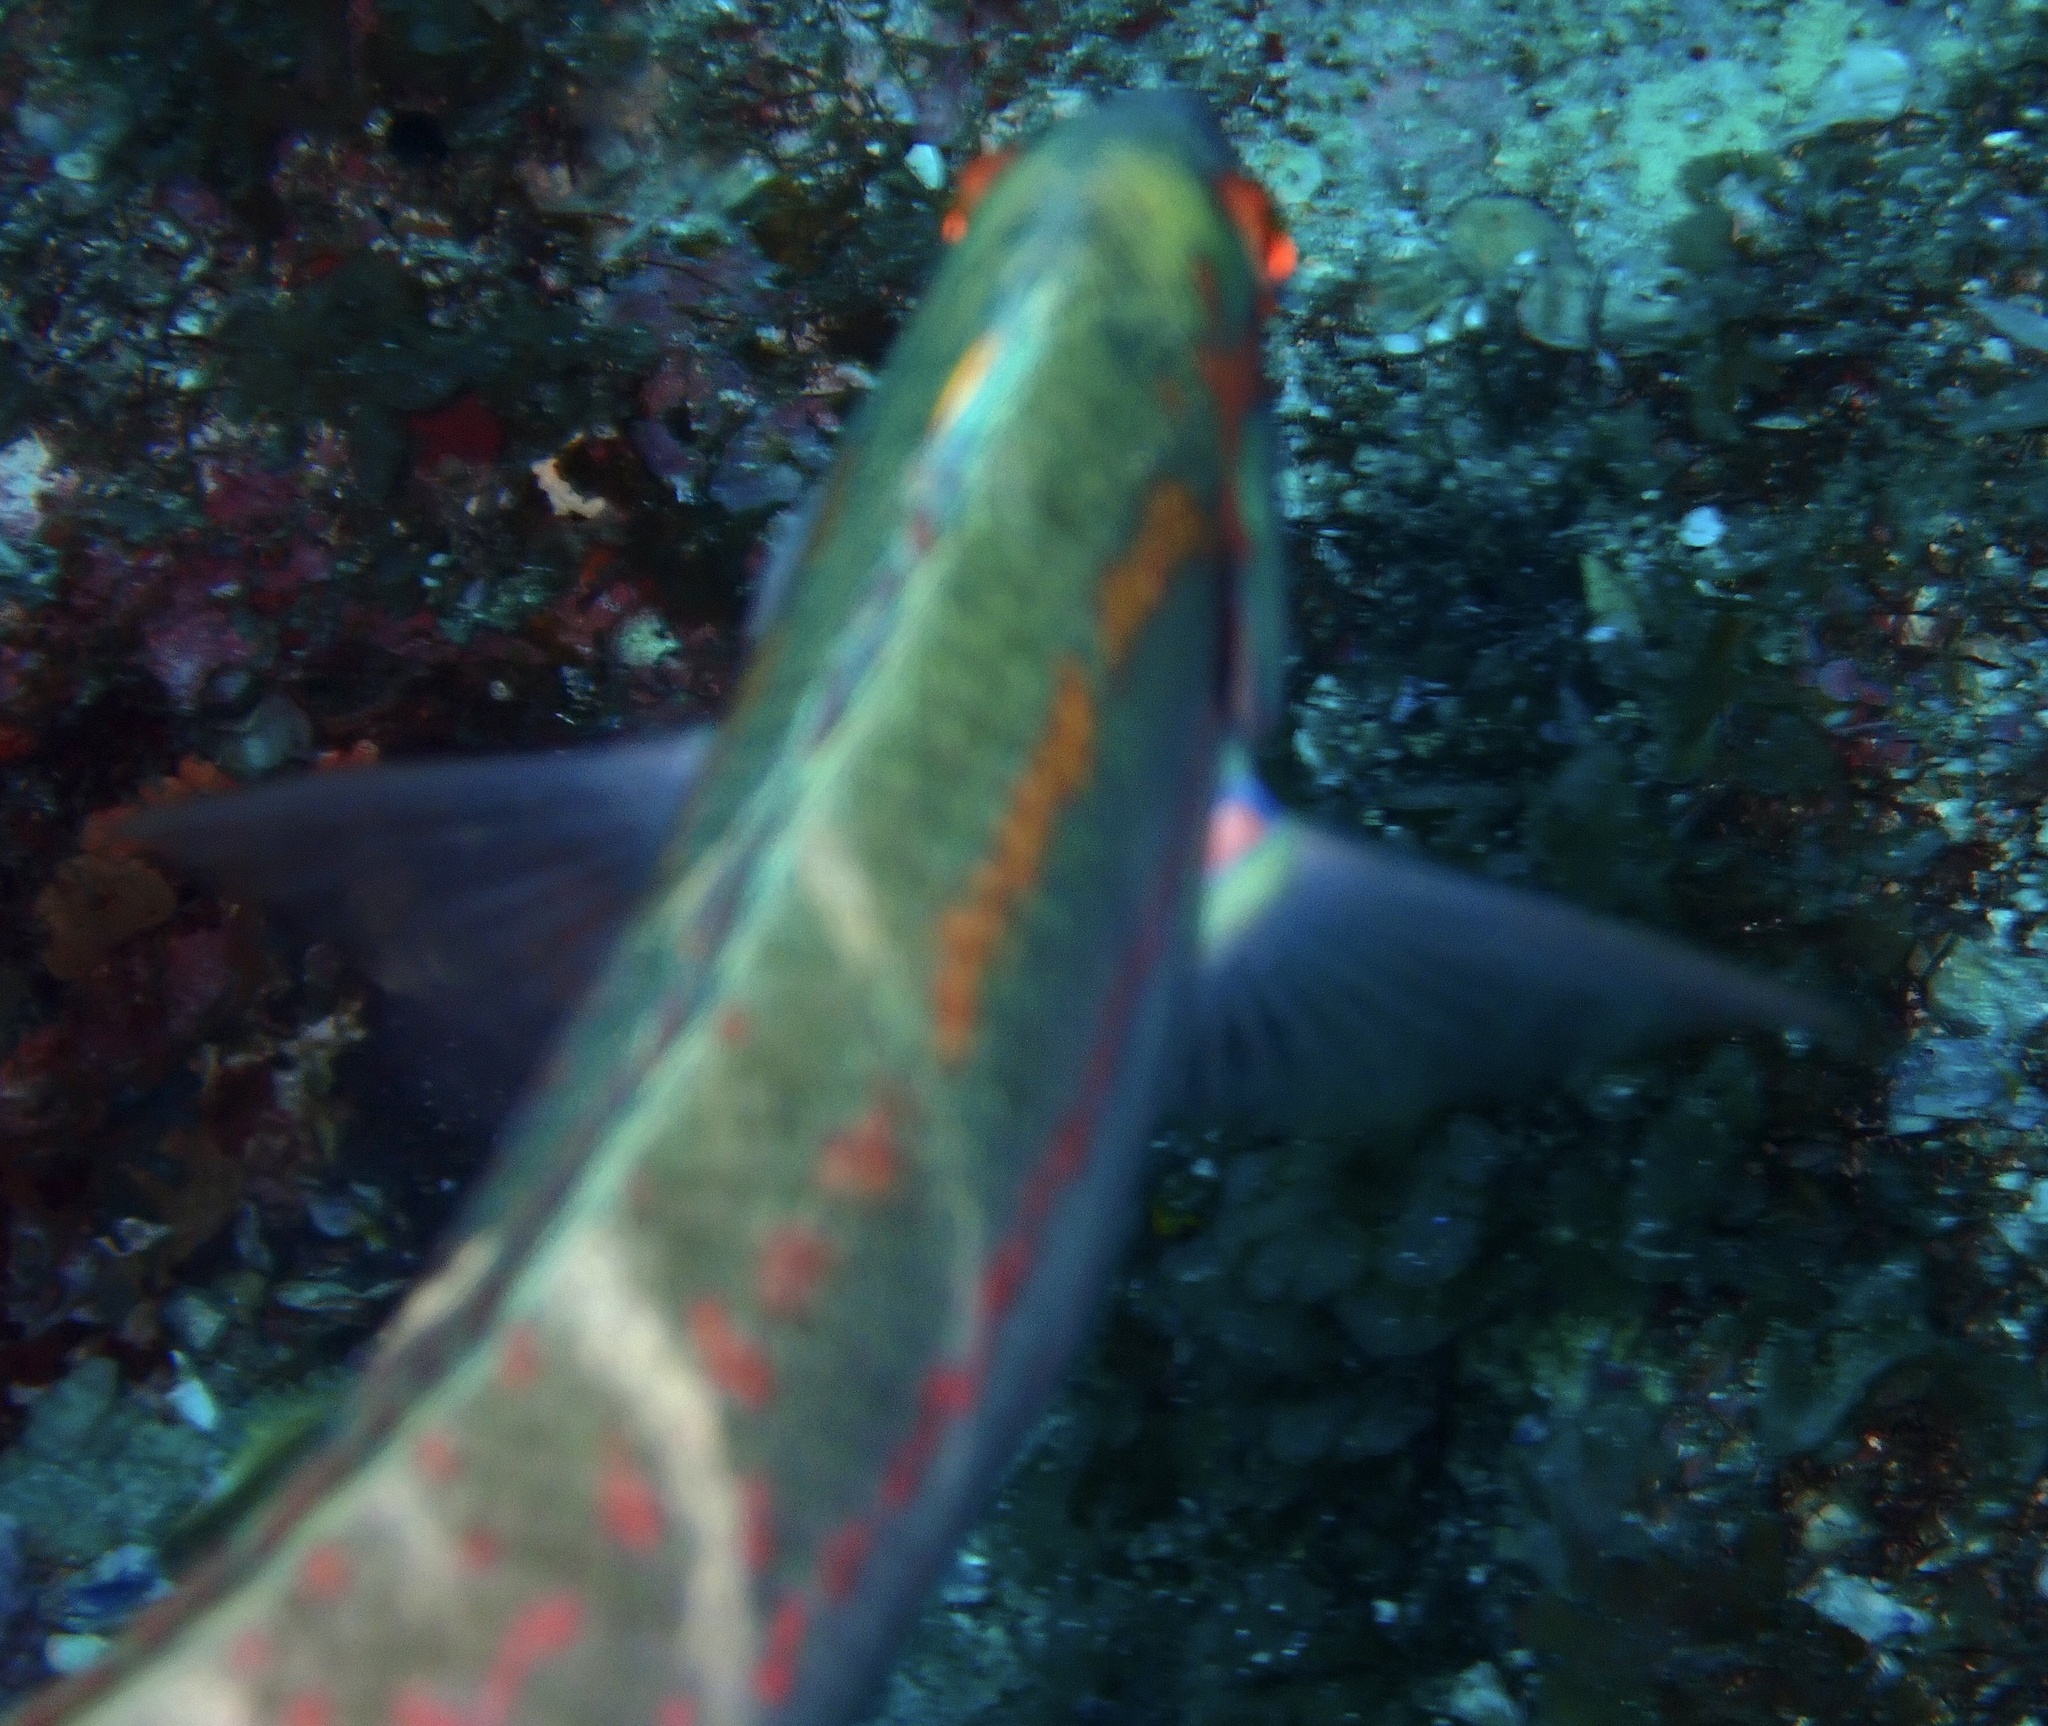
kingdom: Animalia
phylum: Chordata
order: Perciformes
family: Labridae
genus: Coris
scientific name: Coris dorsomacula
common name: Pale-barred coris
